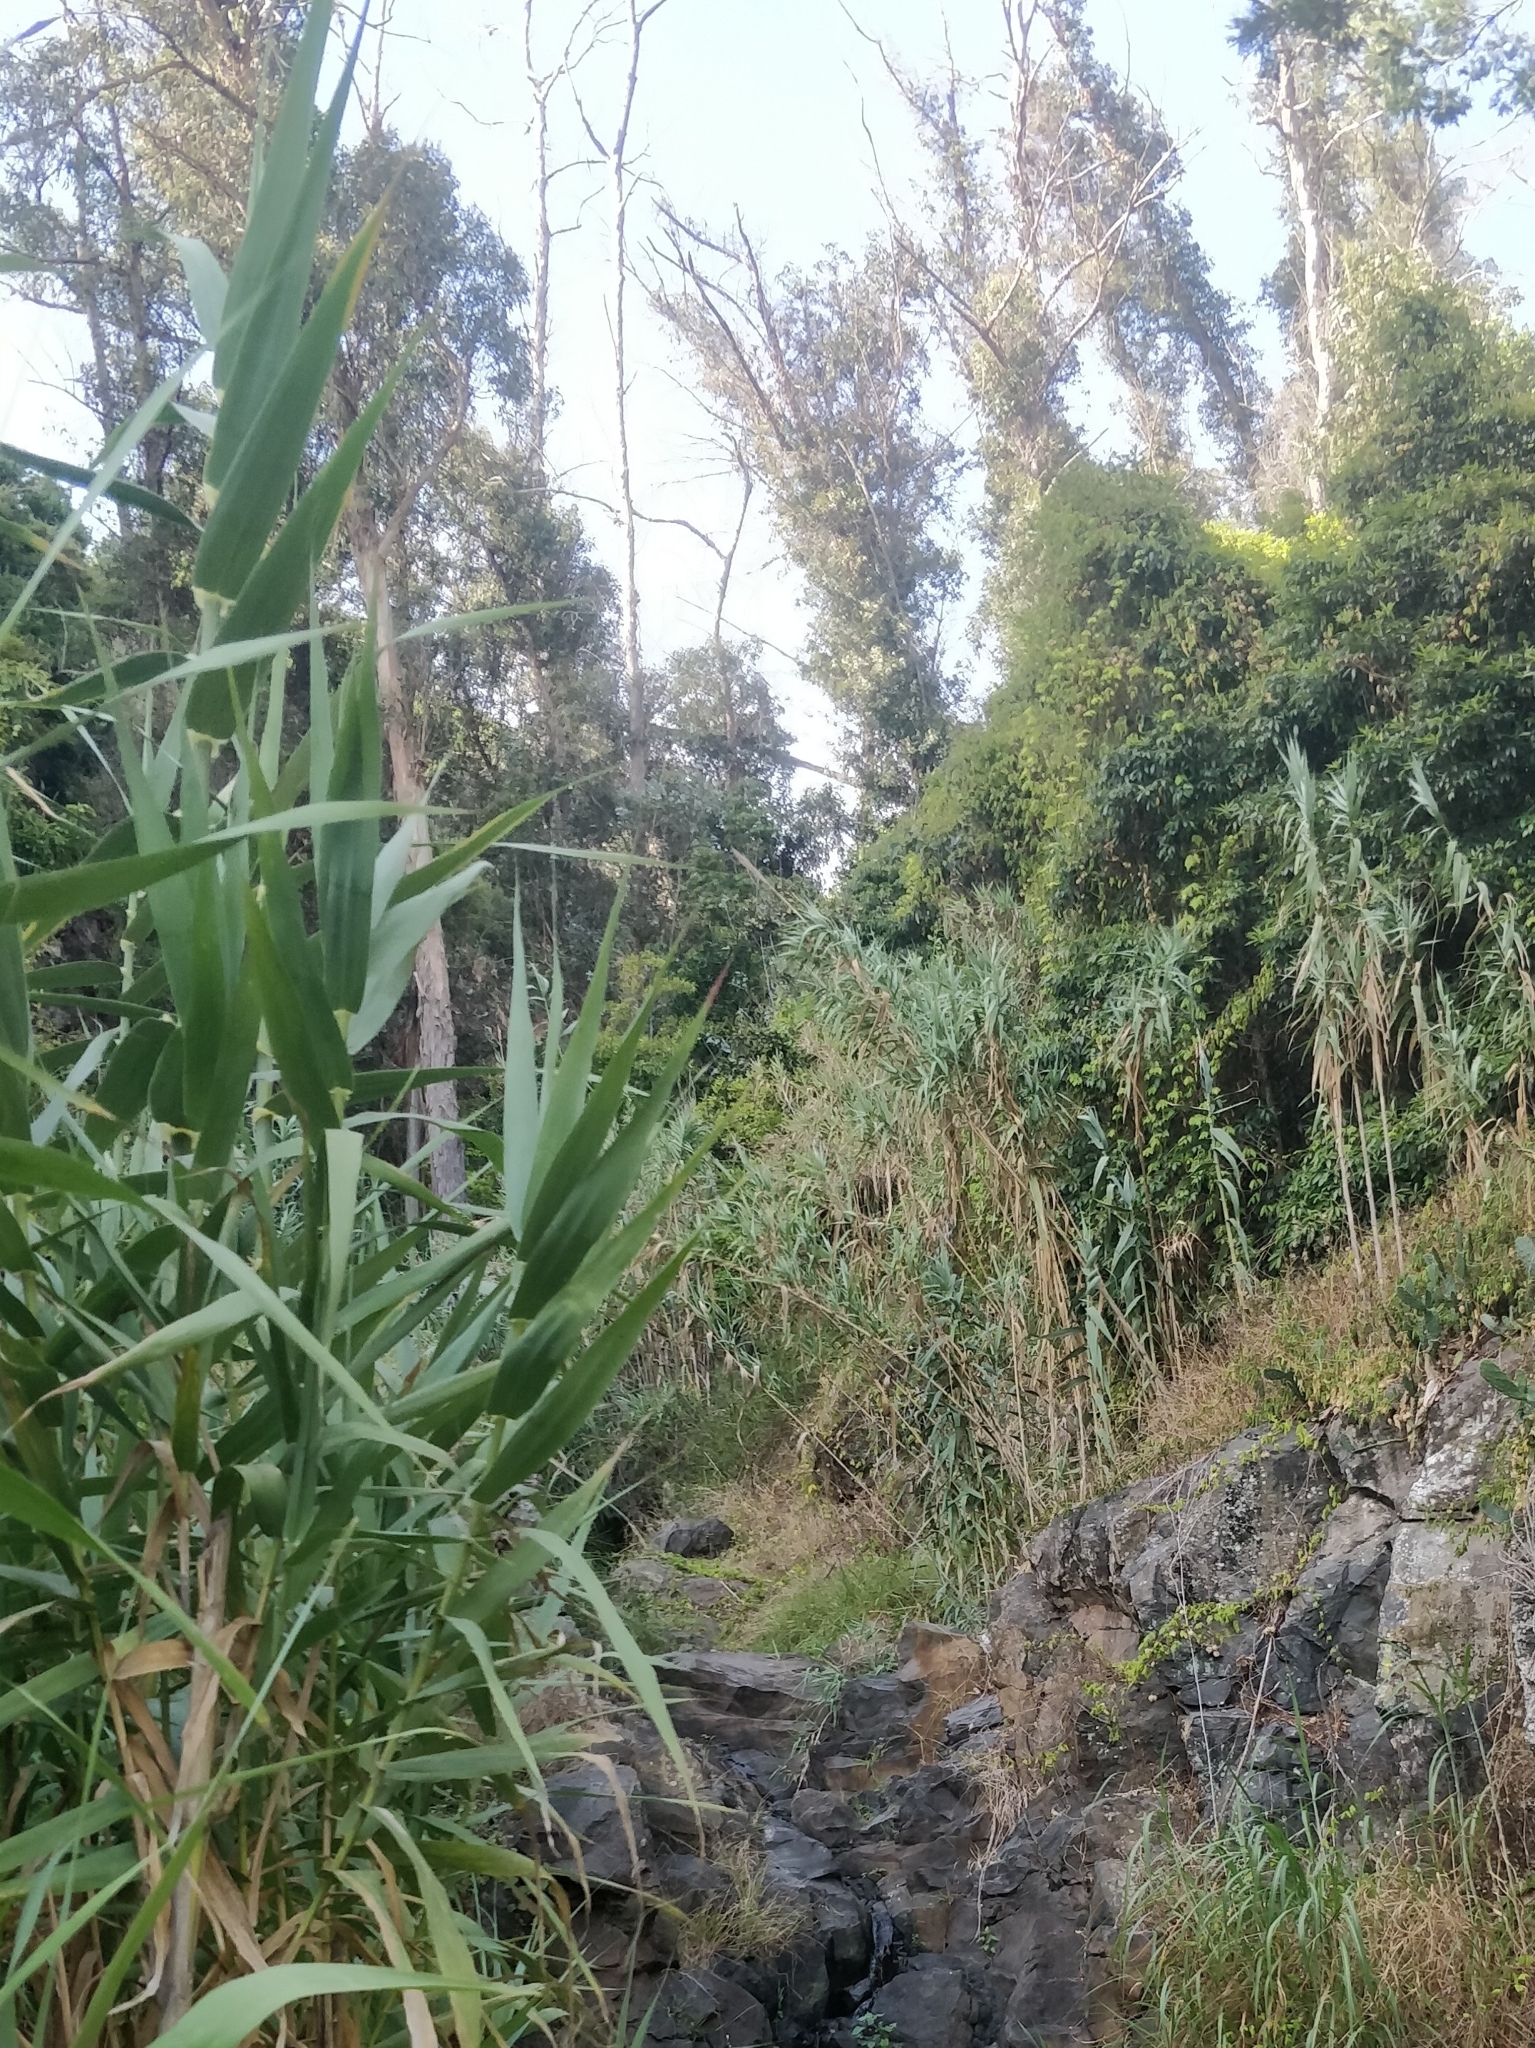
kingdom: Plantae
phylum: Tracheophyta
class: Magnoliopsida
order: Myrtales
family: Myrtaceae
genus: Eucalyptus
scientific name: Eucalyptus globulus
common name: Southern blue-gum
